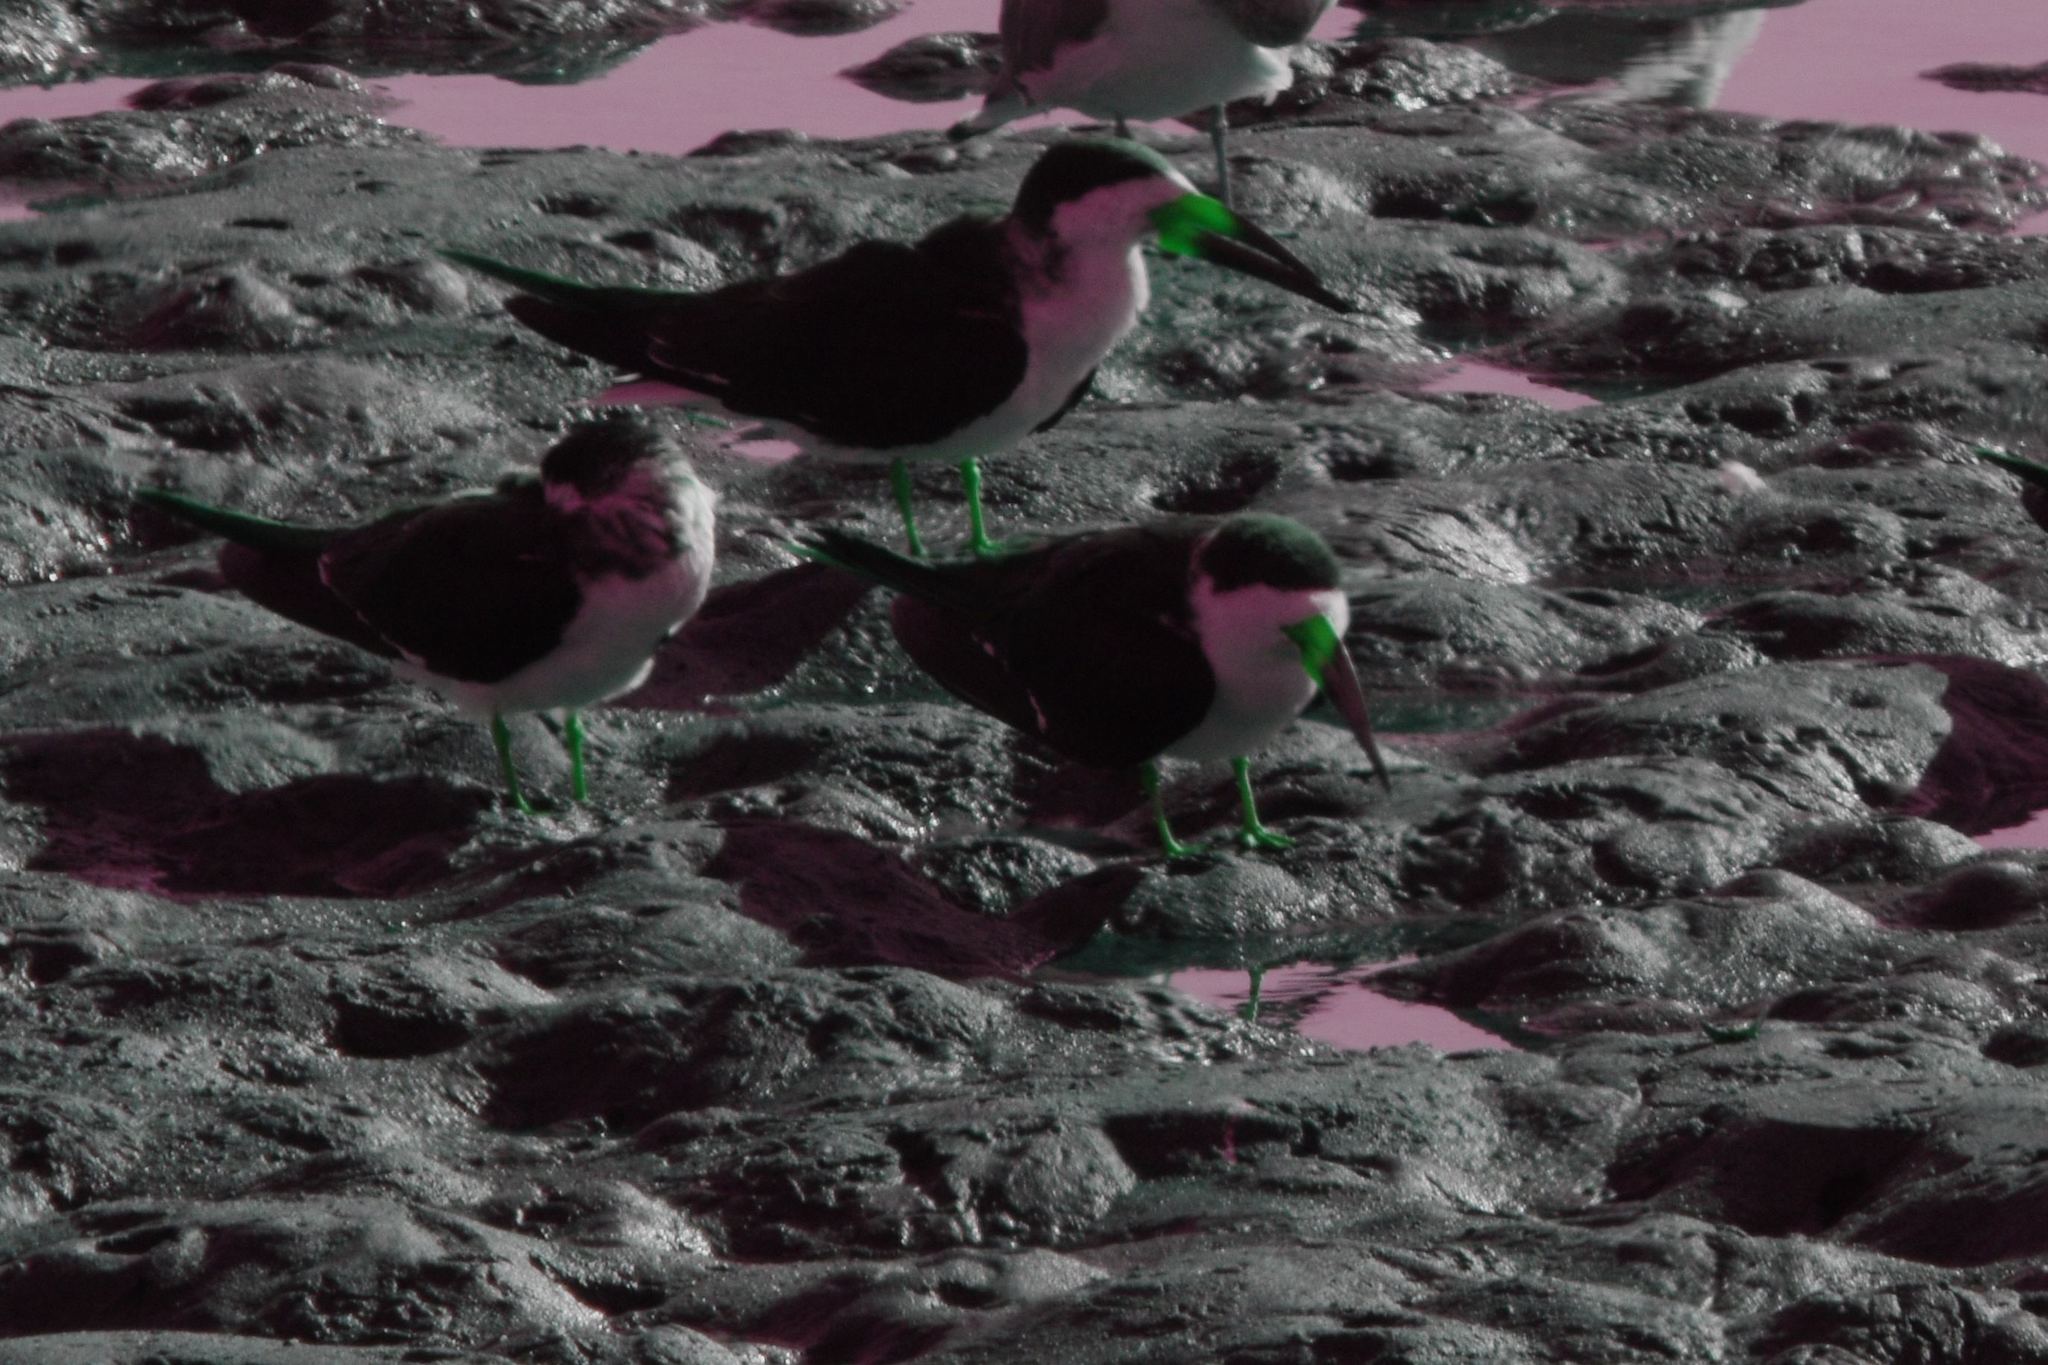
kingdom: Animalia
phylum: Chordata
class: Aves
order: Charadriiformes
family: Laridae
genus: Rynchops
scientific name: Rynchops niger
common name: Black skimmer
